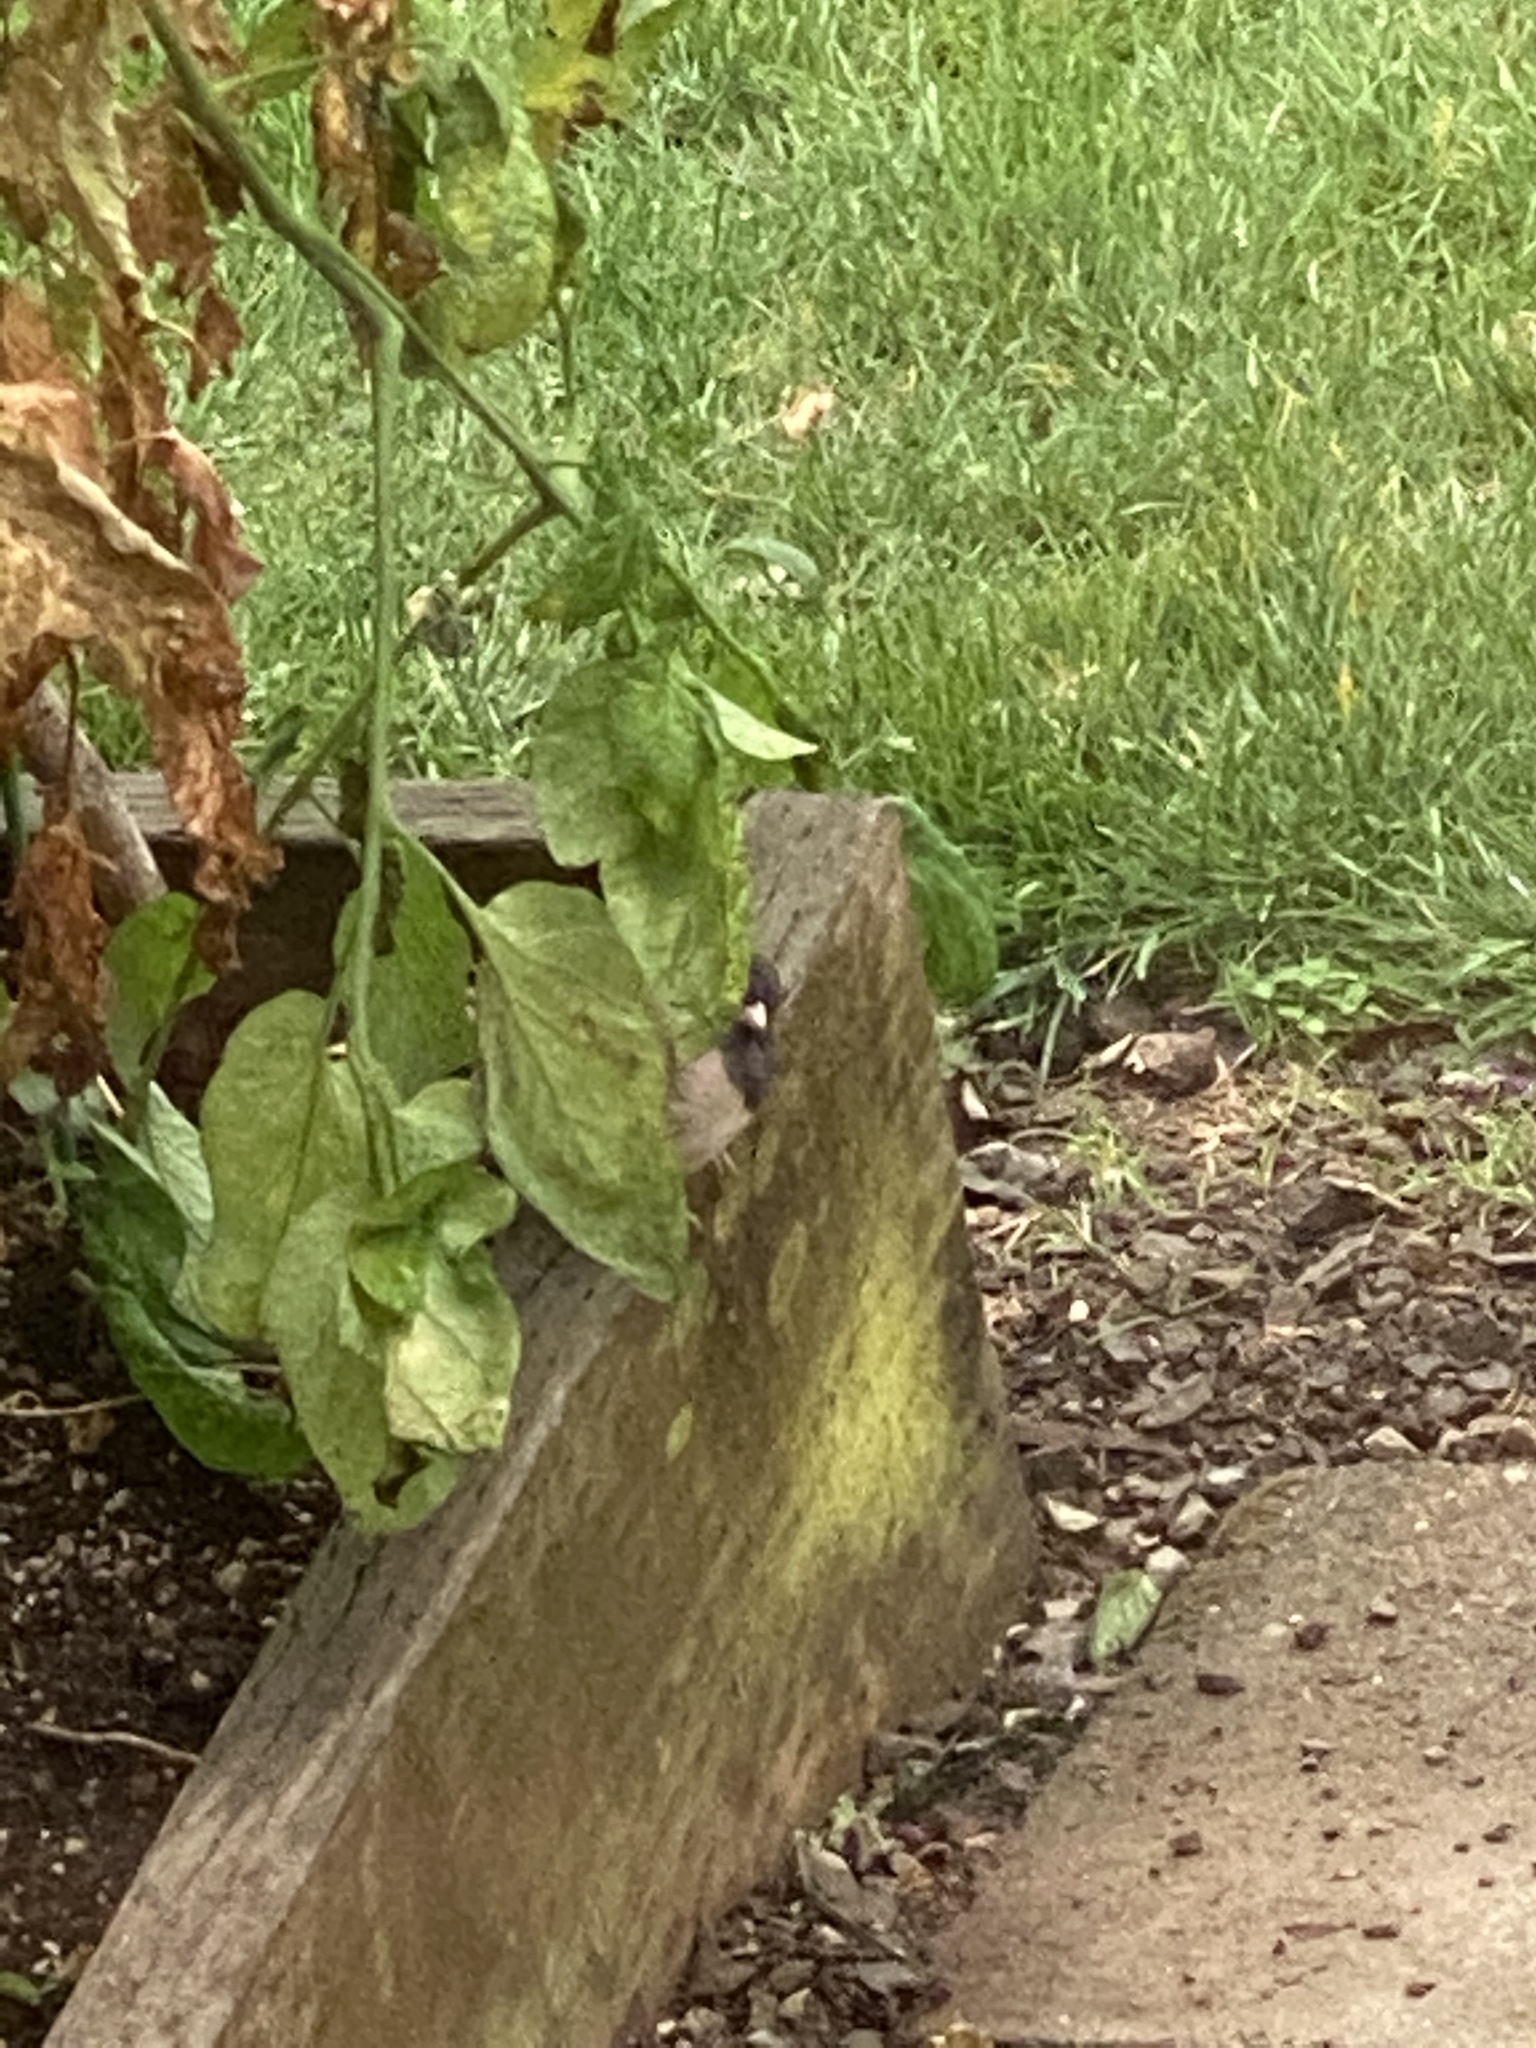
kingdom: Animalia
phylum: Chordata
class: Aves
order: Passeriformes
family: Passerellidae
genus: Junco
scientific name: Junco hyemalis
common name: Dark-eyed junco
